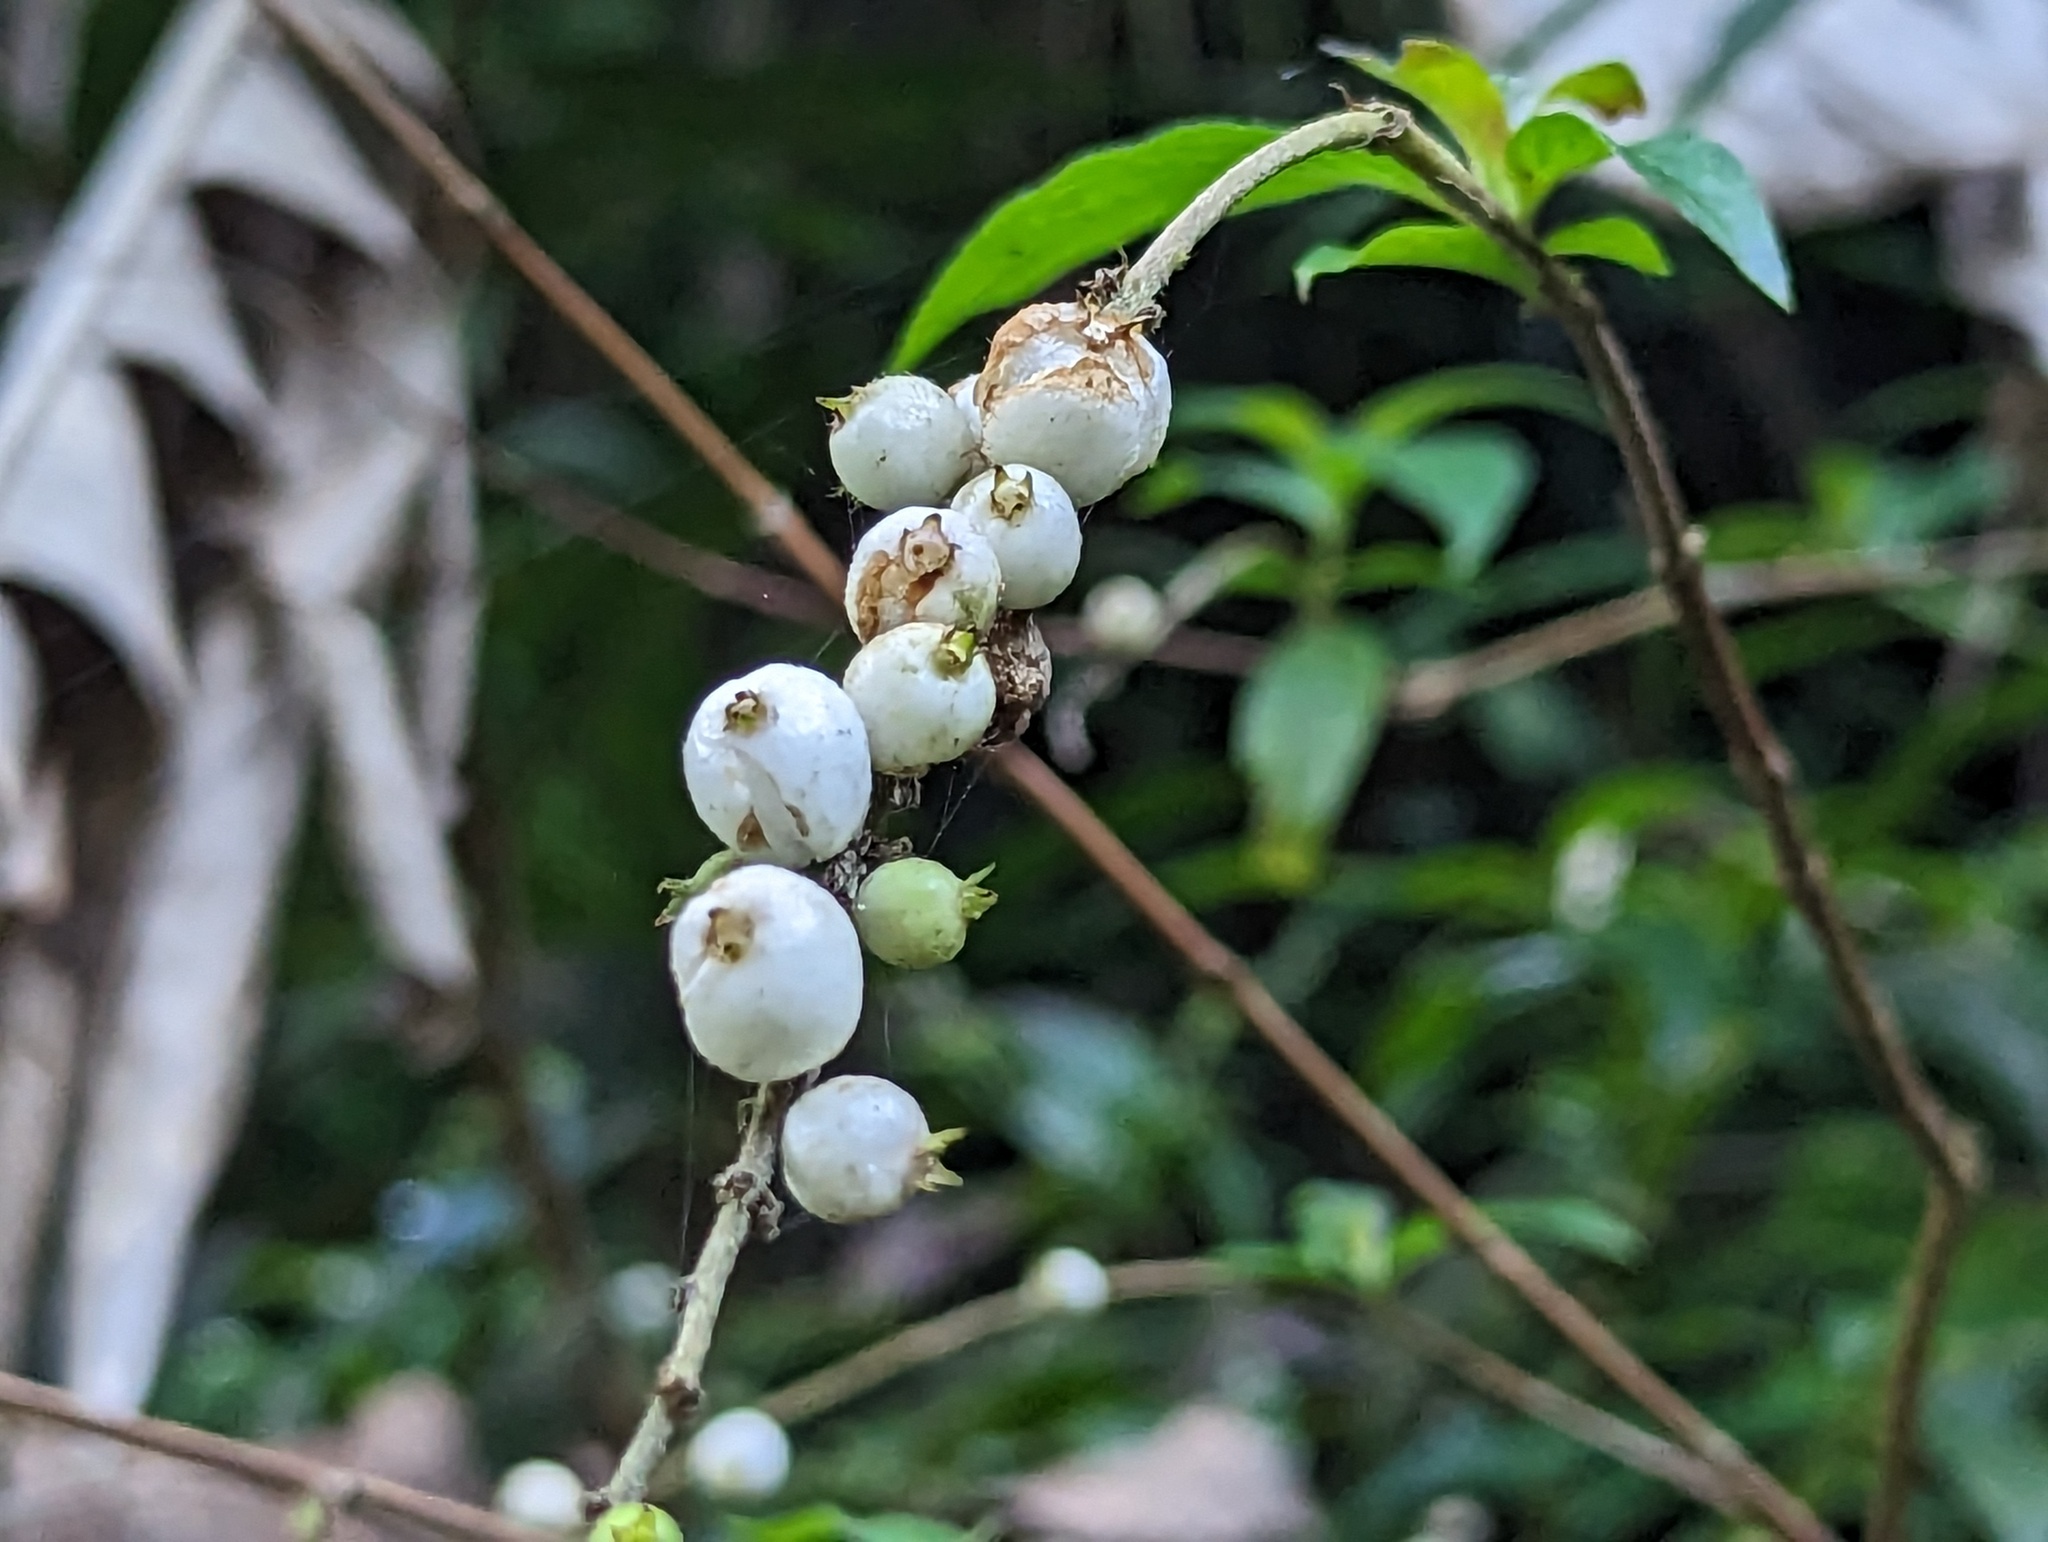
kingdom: Plantae
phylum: Tracheophyta
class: Magnoliopsida
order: Gentianales
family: Rubiaceae
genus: Gonzalagunia
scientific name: Gonzalagunia hirsuta
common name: Mata de mariposa
